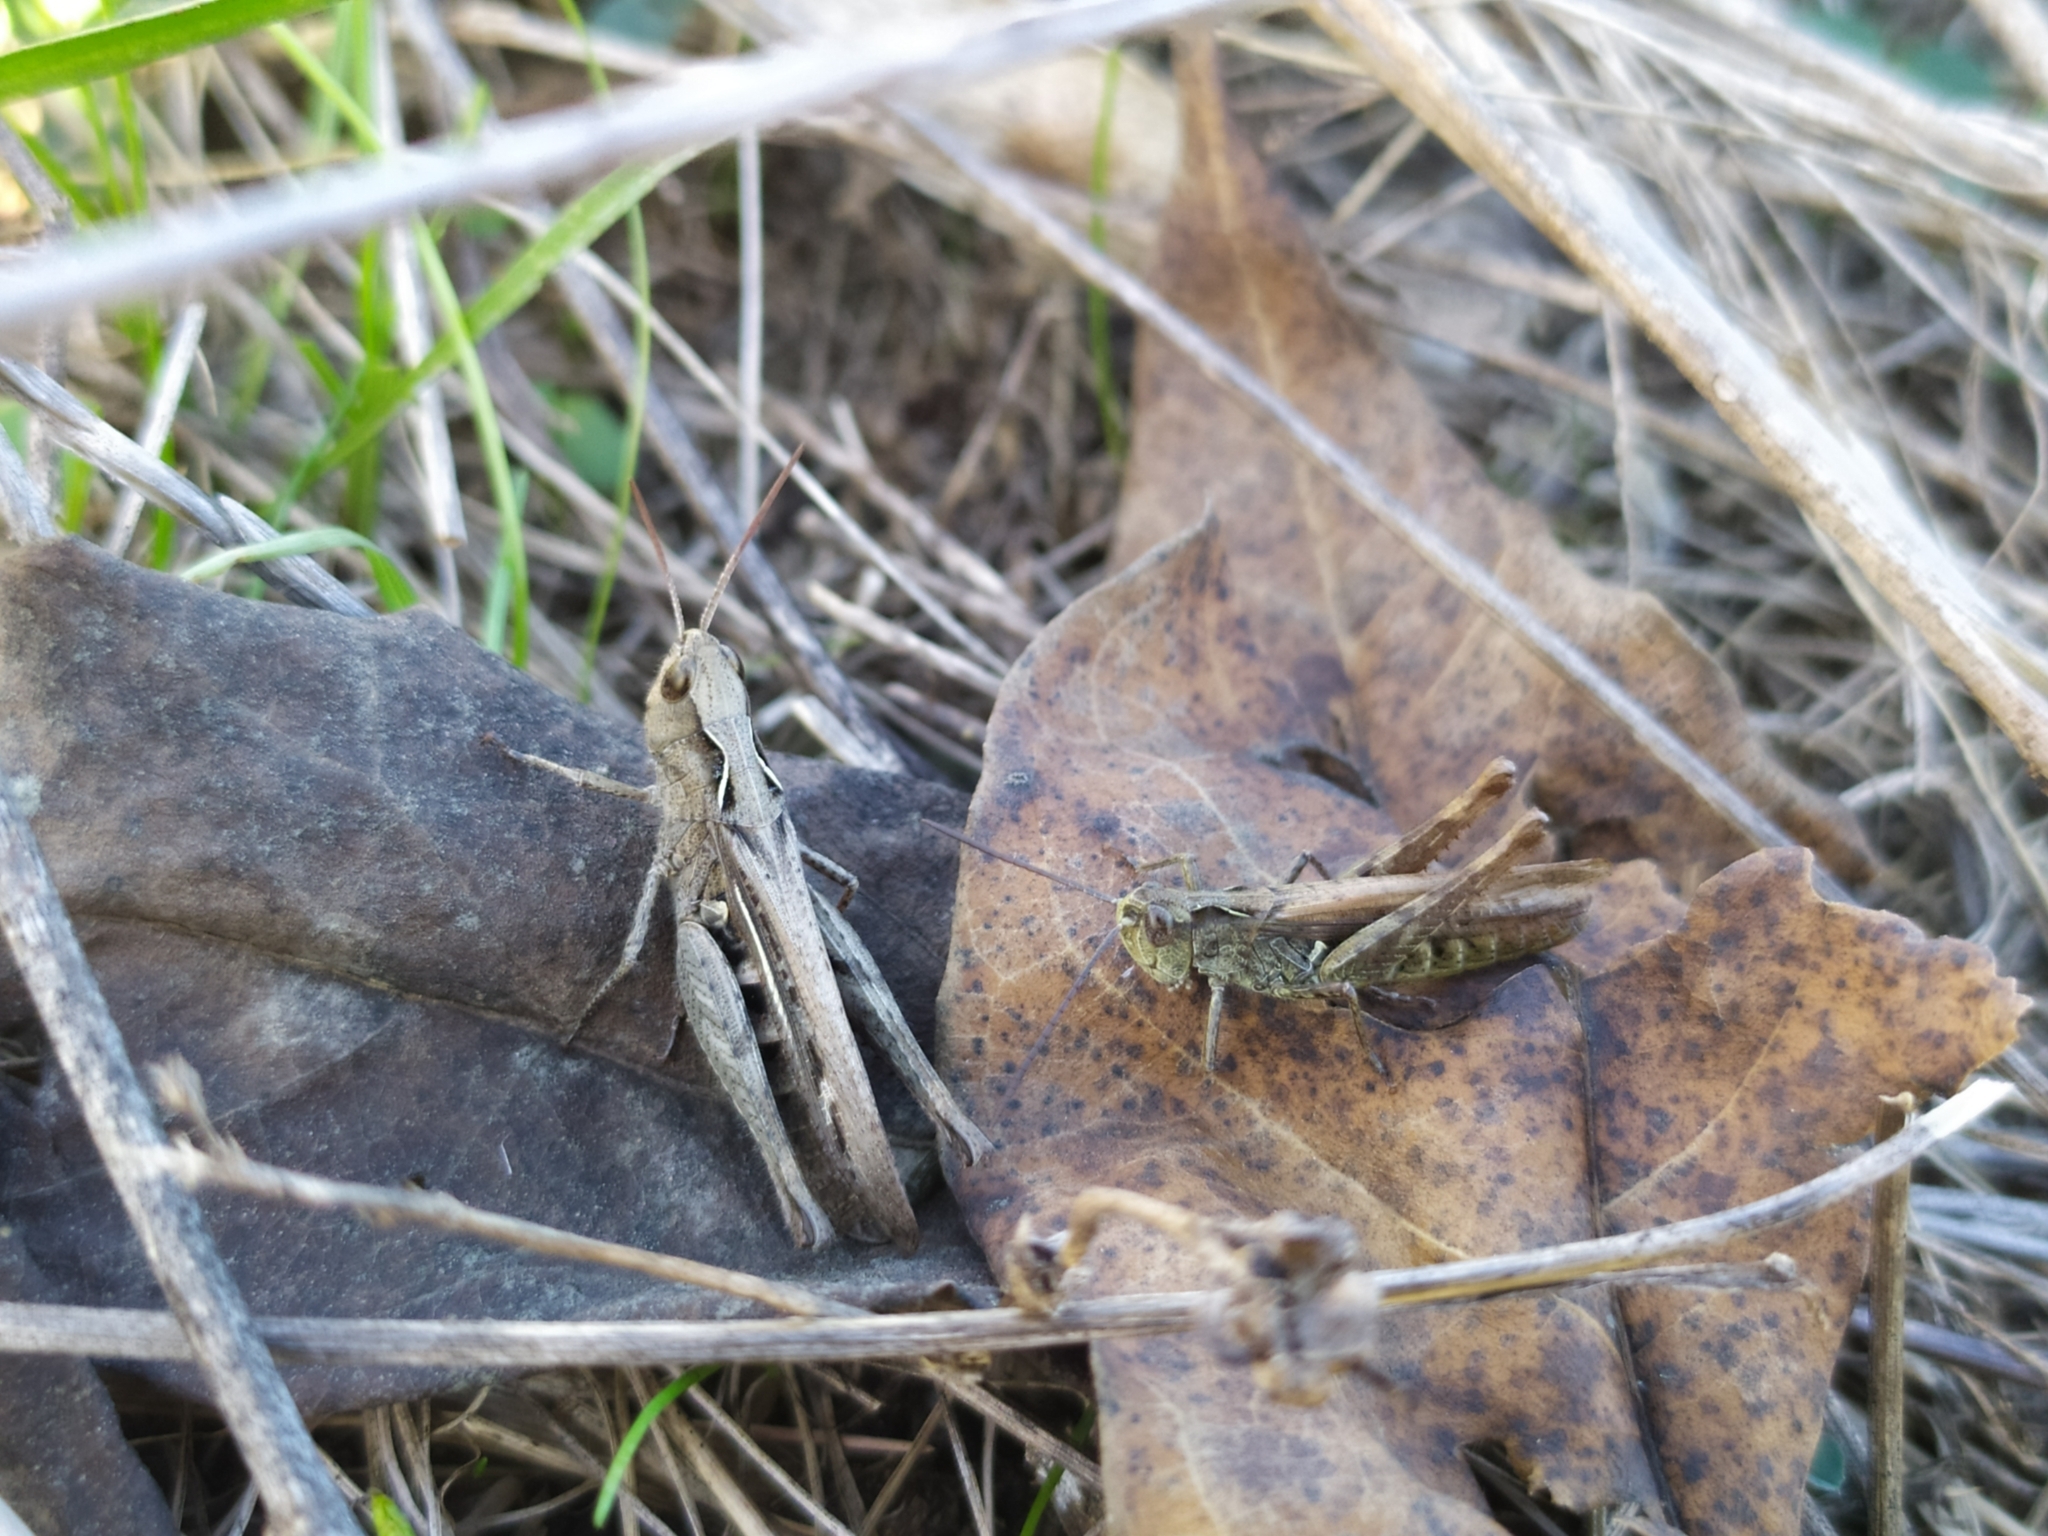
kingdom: Animalia
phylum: Arthropoda
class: Insecta
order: Orthoptera
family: Acrididae
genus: Chorthippus
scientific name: Chorthippus mollis
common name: Lesser field grasshopper
